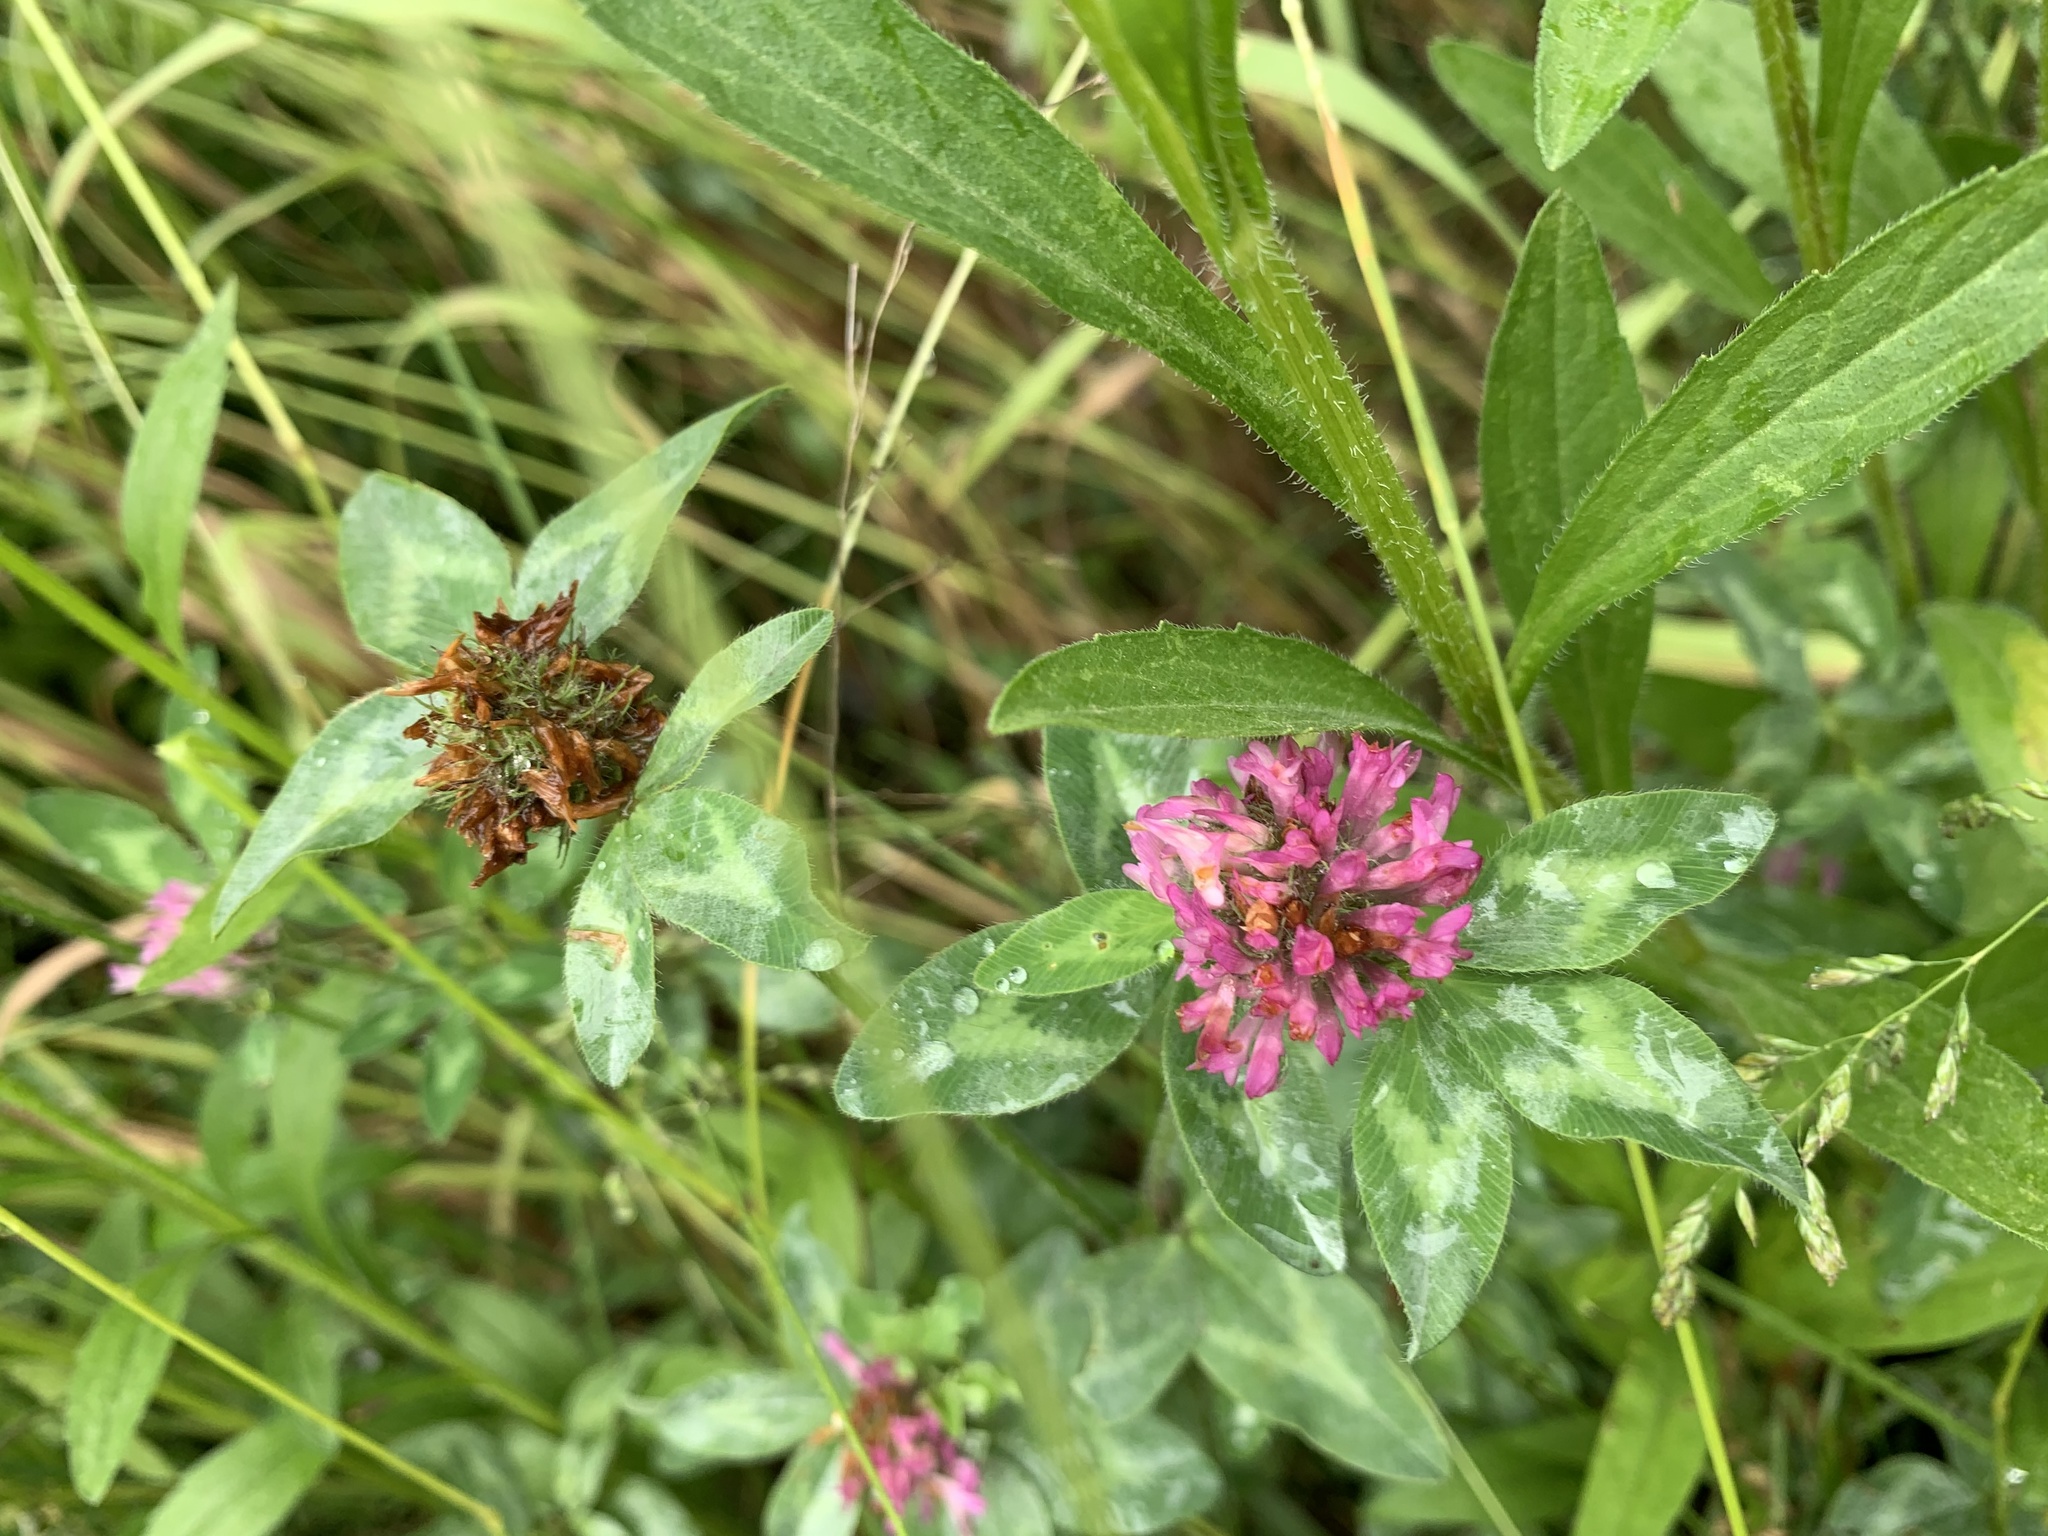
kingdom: Plantae
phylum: Tracheophyta
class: Magnoliopsida
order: Fabales
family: Fabaceae
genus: Trifolium
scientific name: Trifolium pratense
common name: Red clover
